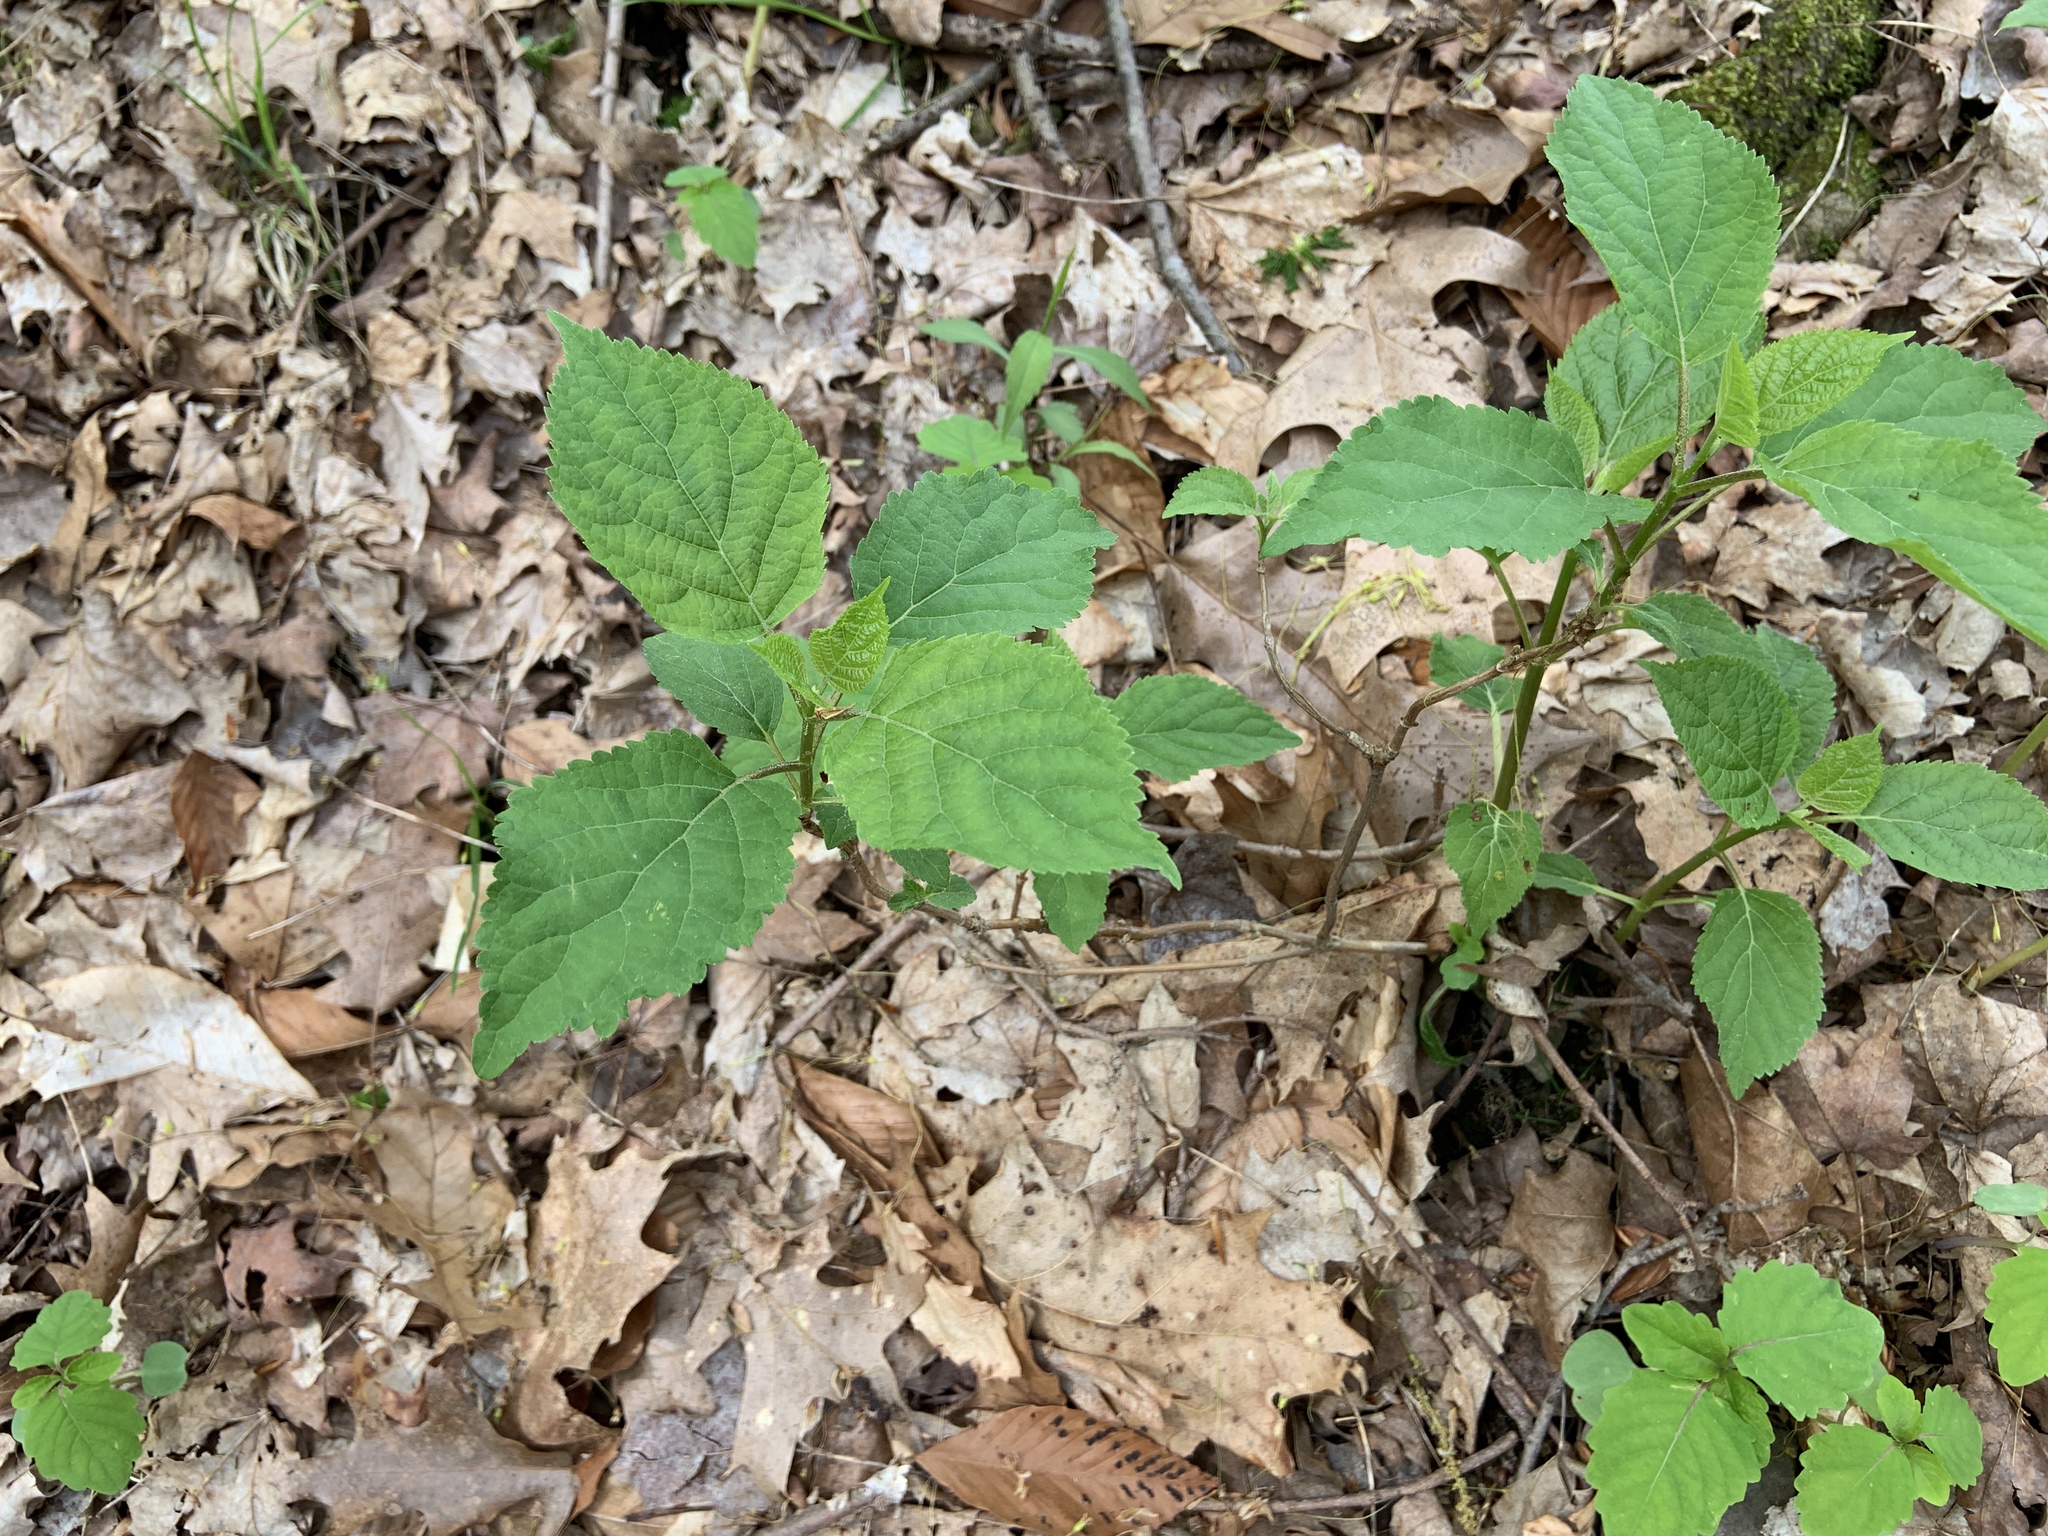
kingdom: Plantae
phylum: Tracheophyta
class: Magnoliopsida
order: Cornales
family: Hydrangeaceae
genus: Hydrangea
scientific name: Hydrangea arborescens
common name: Sevenbark
